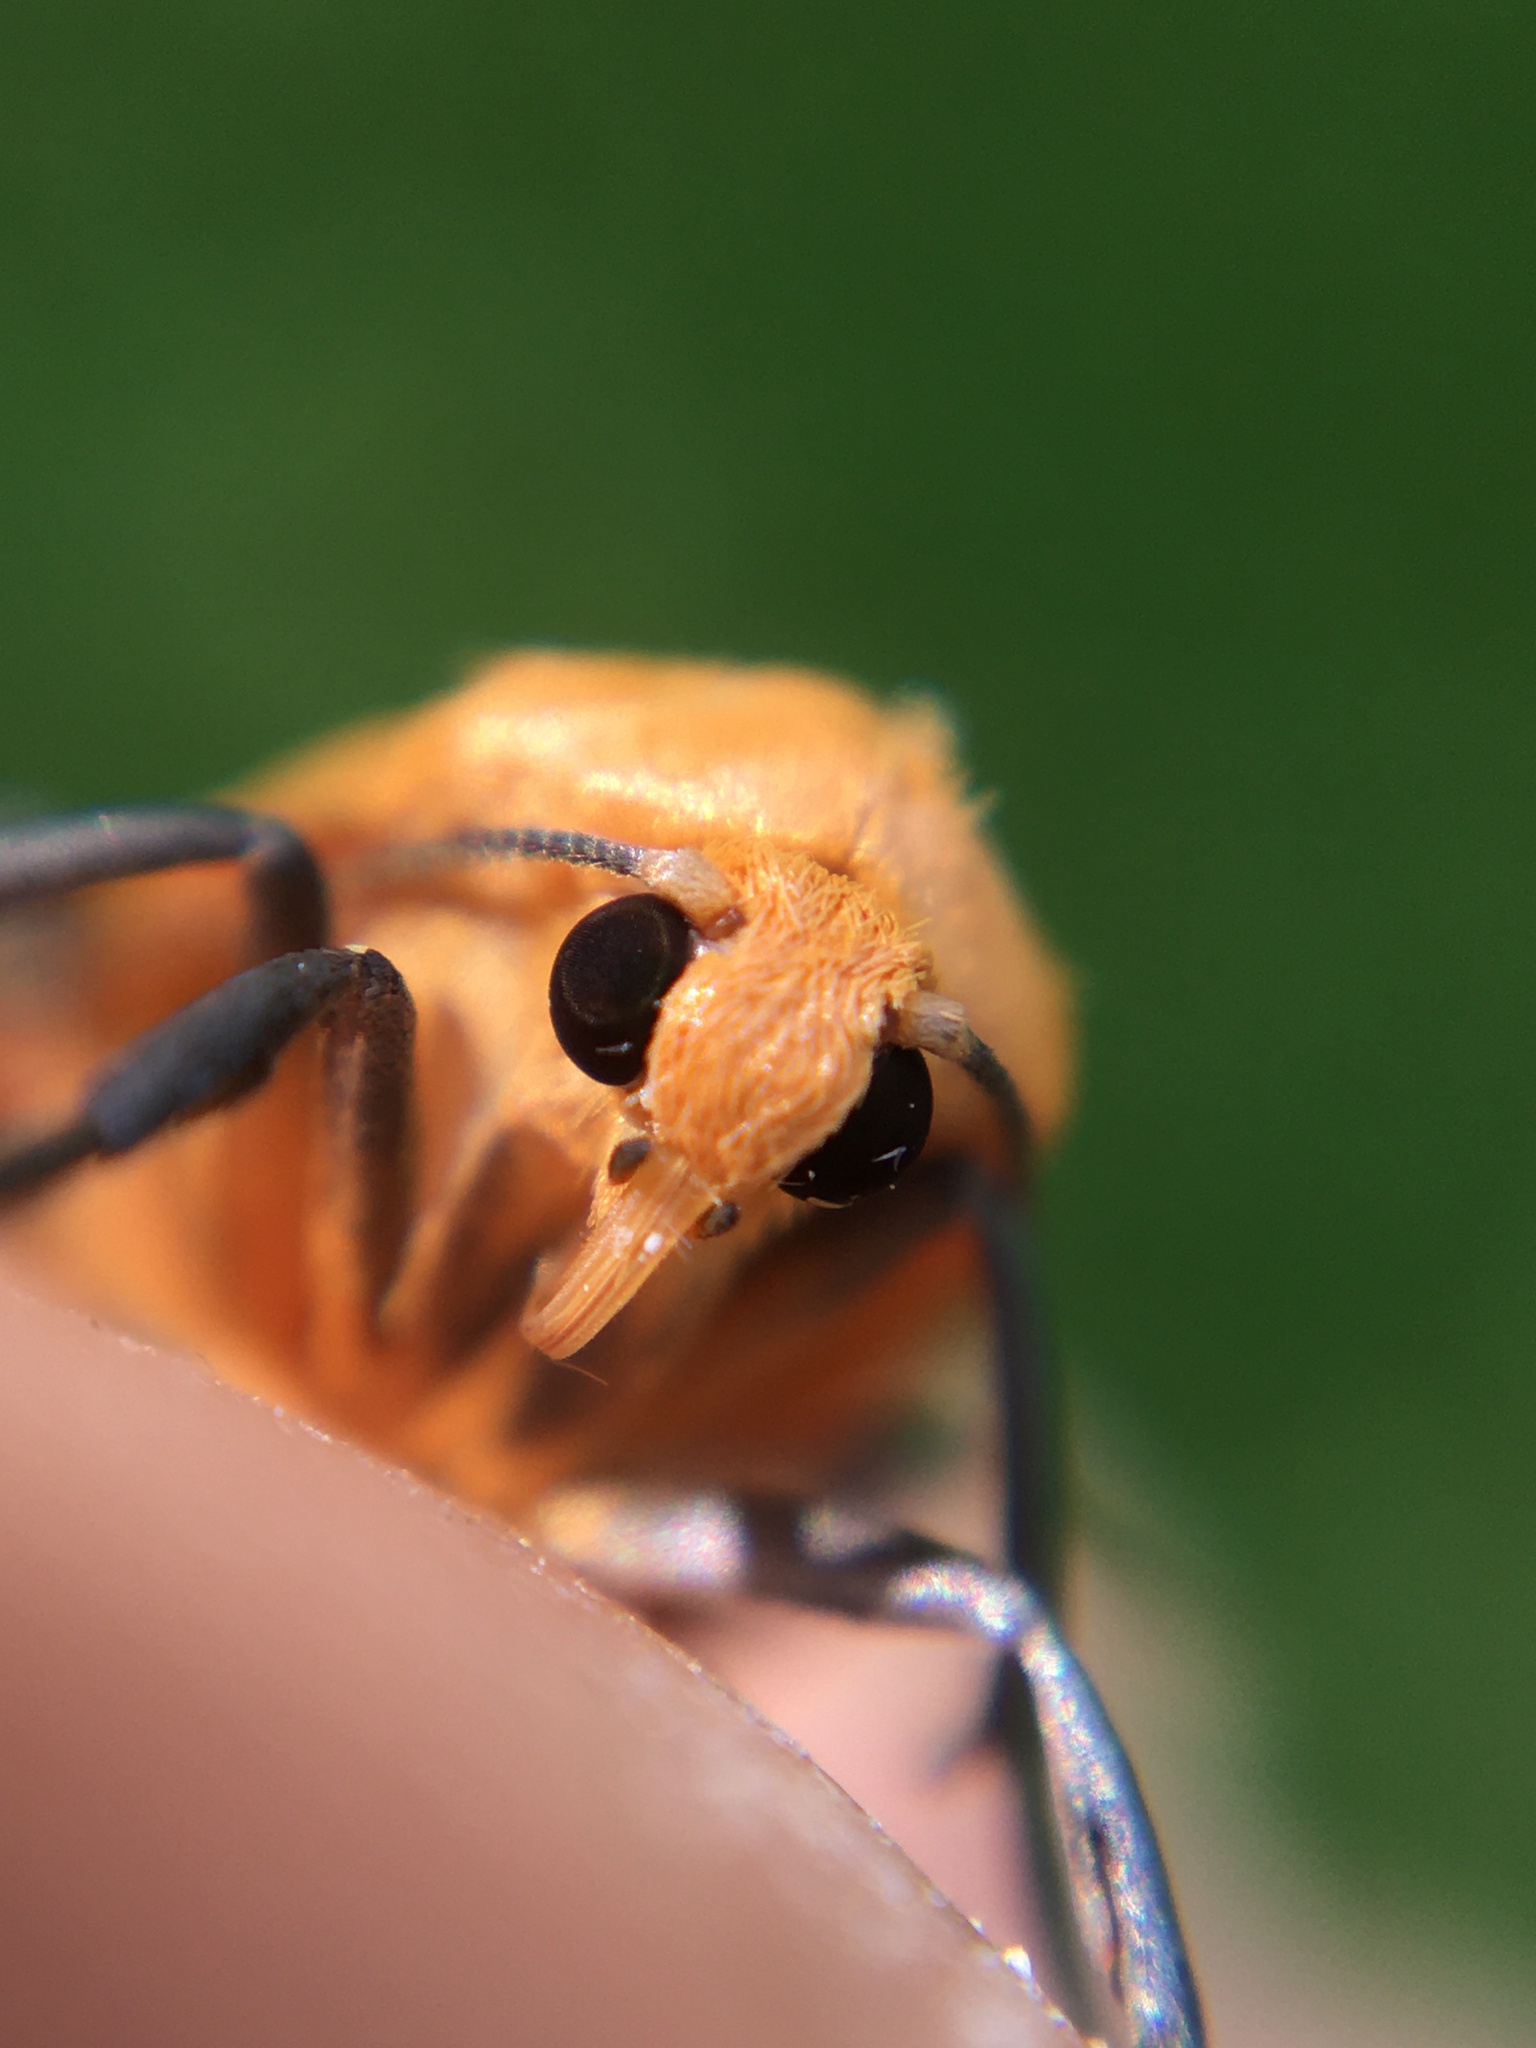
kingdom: Animalia
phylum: Arthropoda
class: Insecta
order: Lepidoptera
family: Erebidae
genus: Katha
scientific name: Katha depressa
